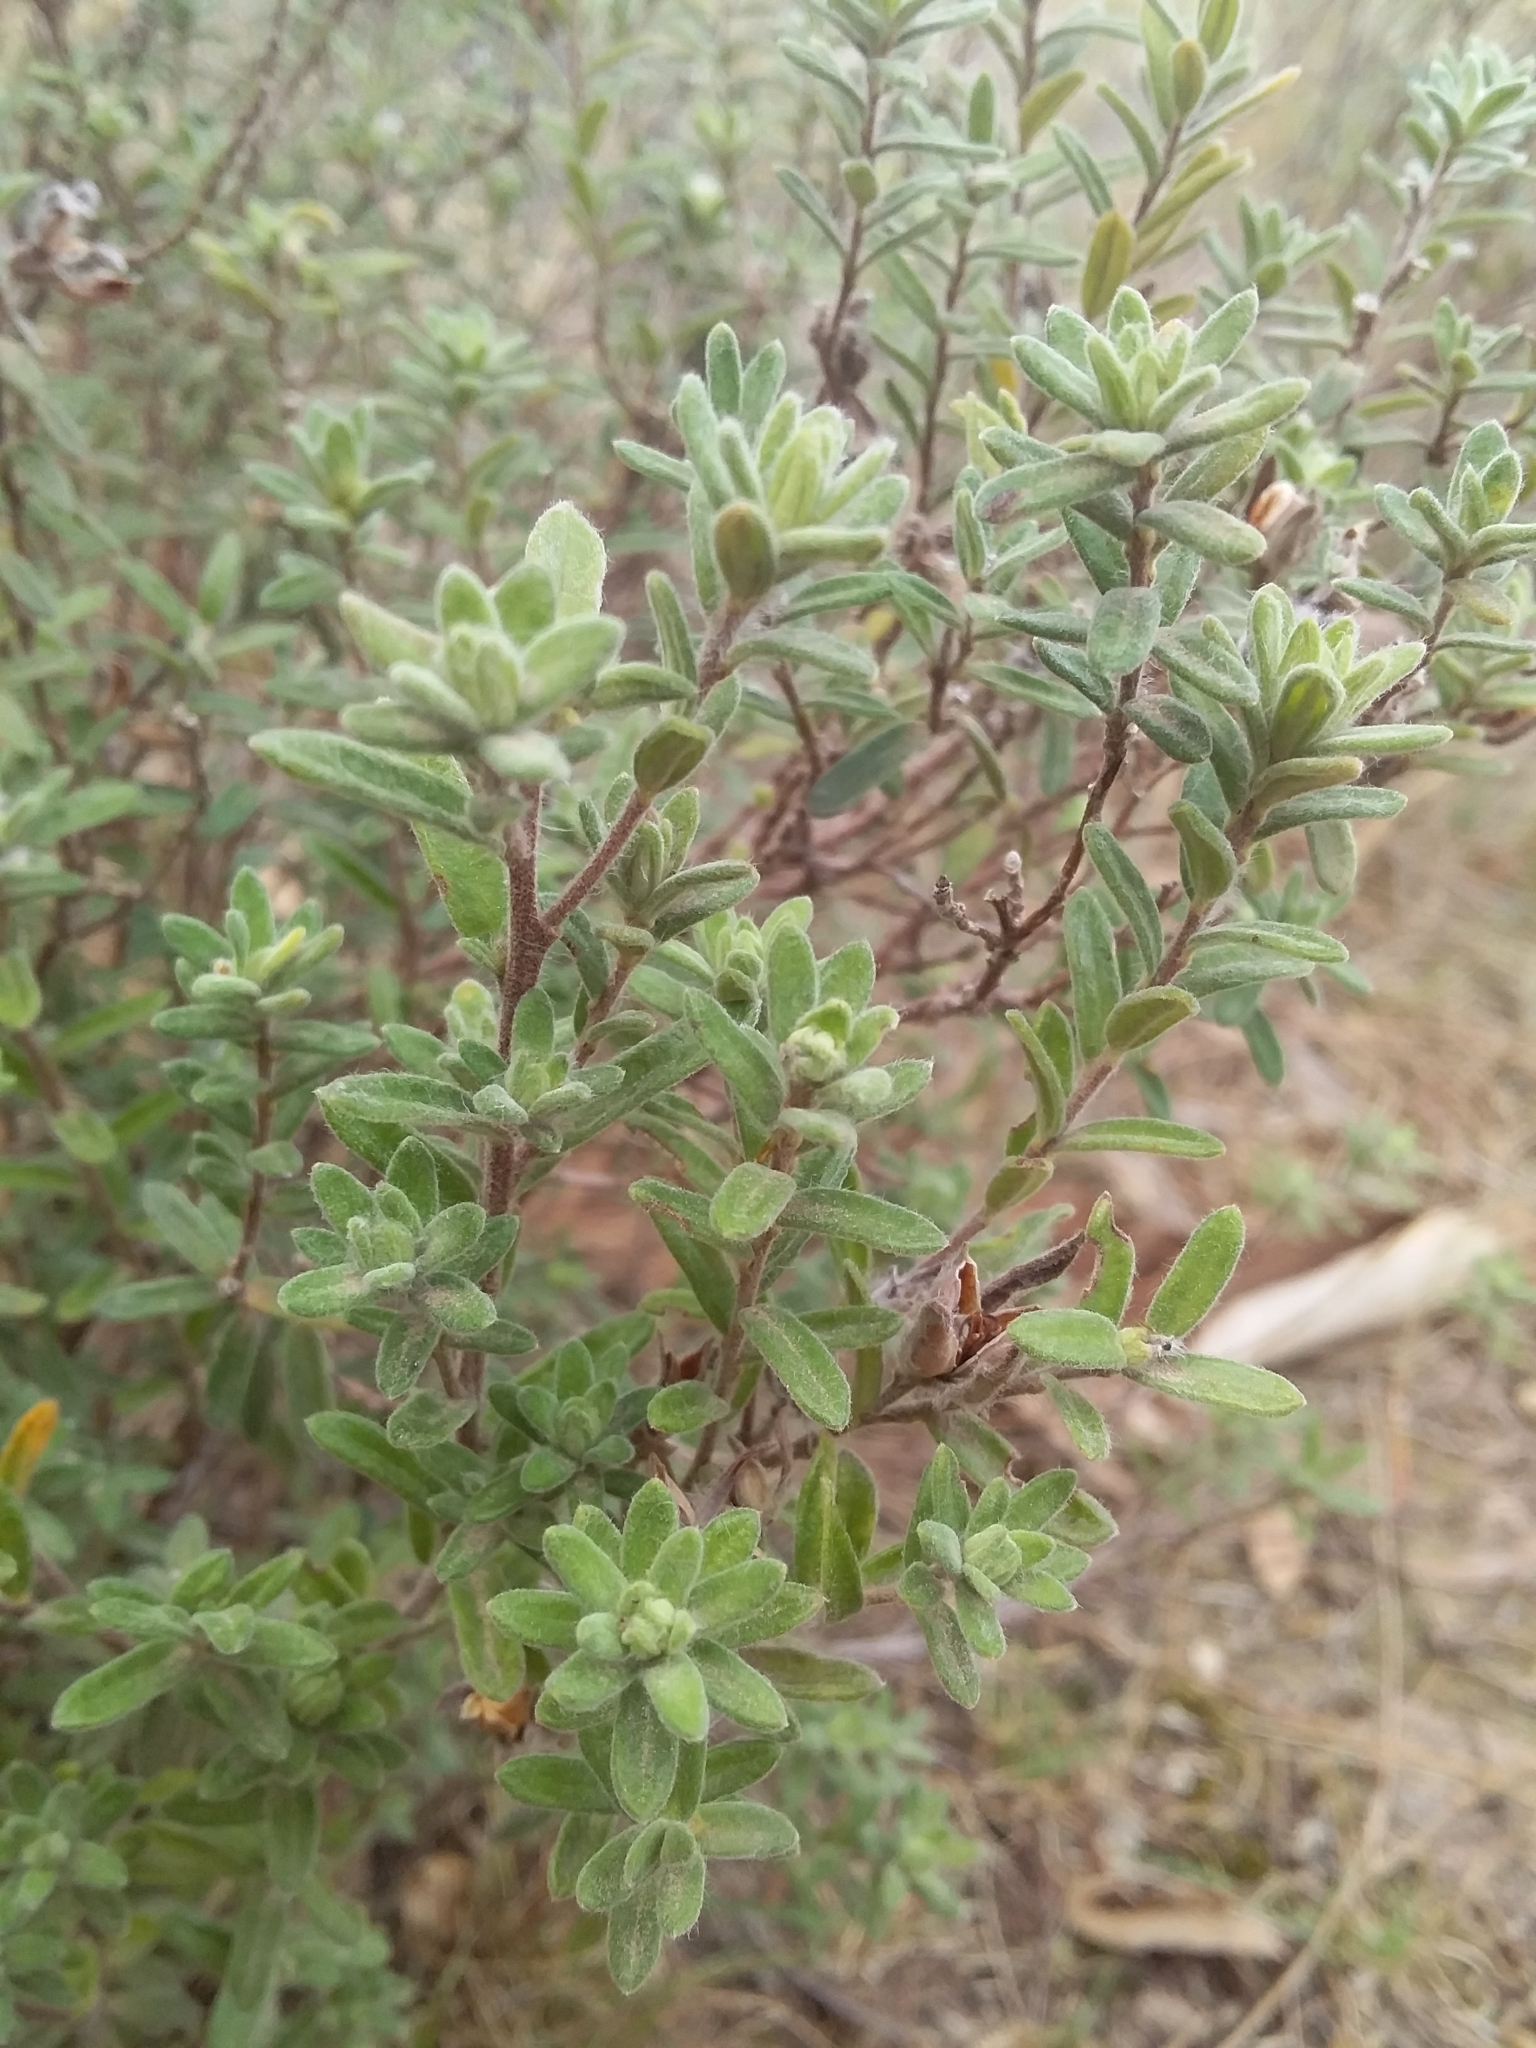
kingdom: Plantae
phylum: Tracheophyta
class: Magnoliopsida
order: Dilleniales
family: Dilleniaceae
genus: Hibbertia
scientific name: Hibbertia crinita
